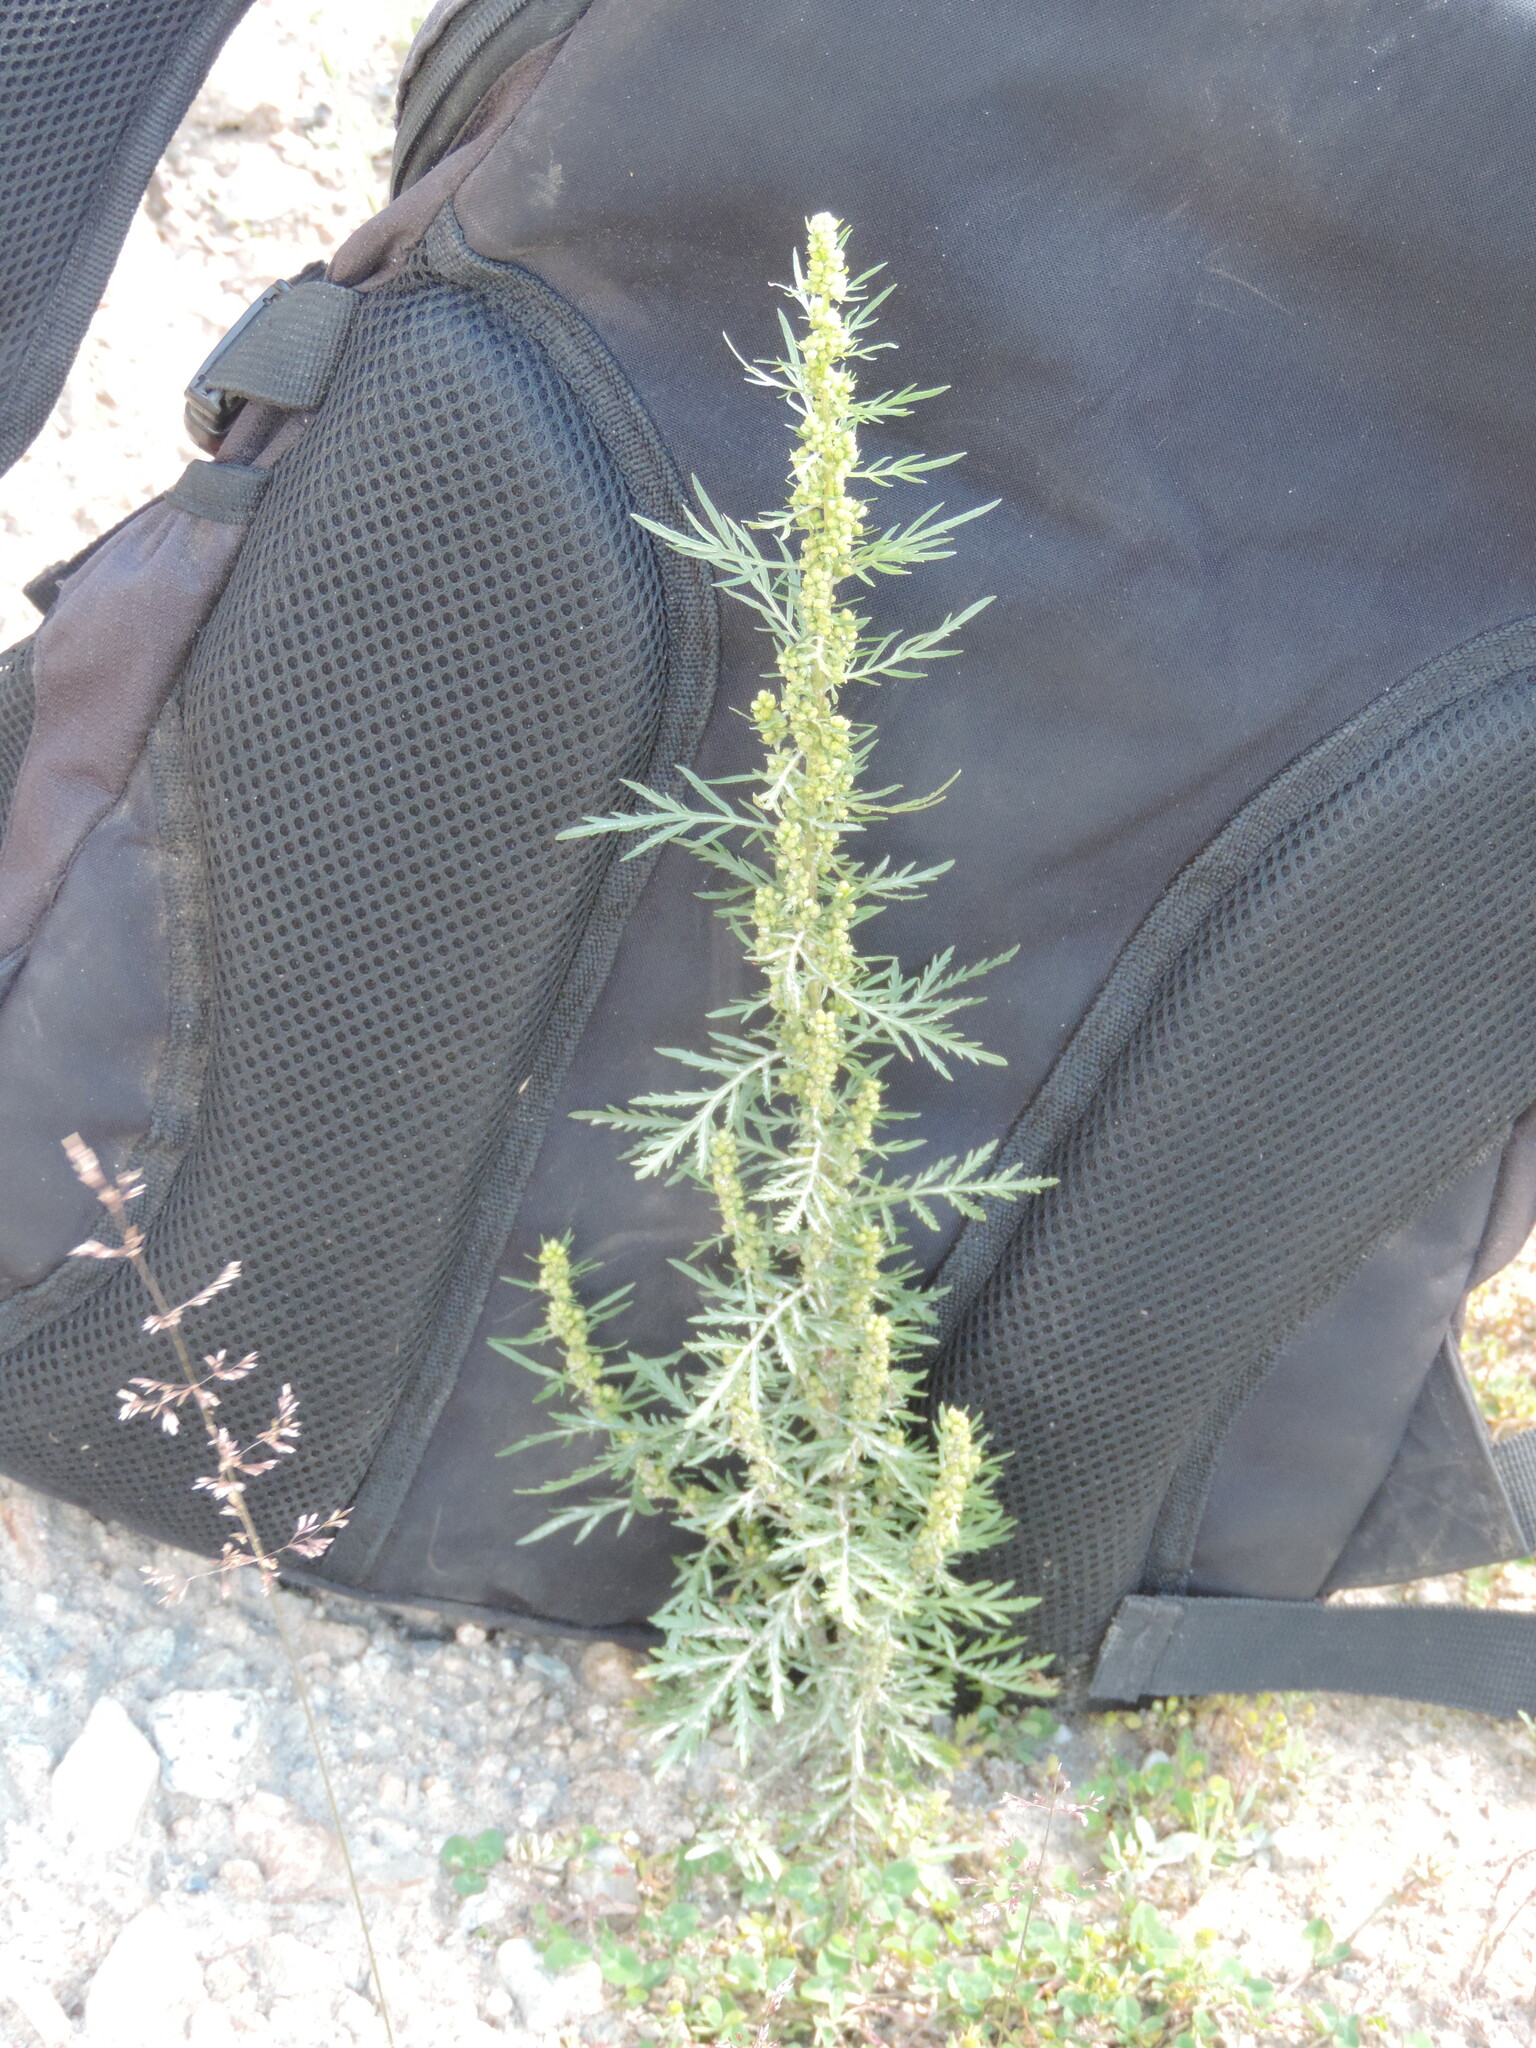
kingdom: Plantae
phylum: Tracheophyta
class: Magnoliopsida
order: Asterales
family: Asteraceae
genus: Artemisia
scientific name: Artemisia biennis
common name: Biennial wormwood
